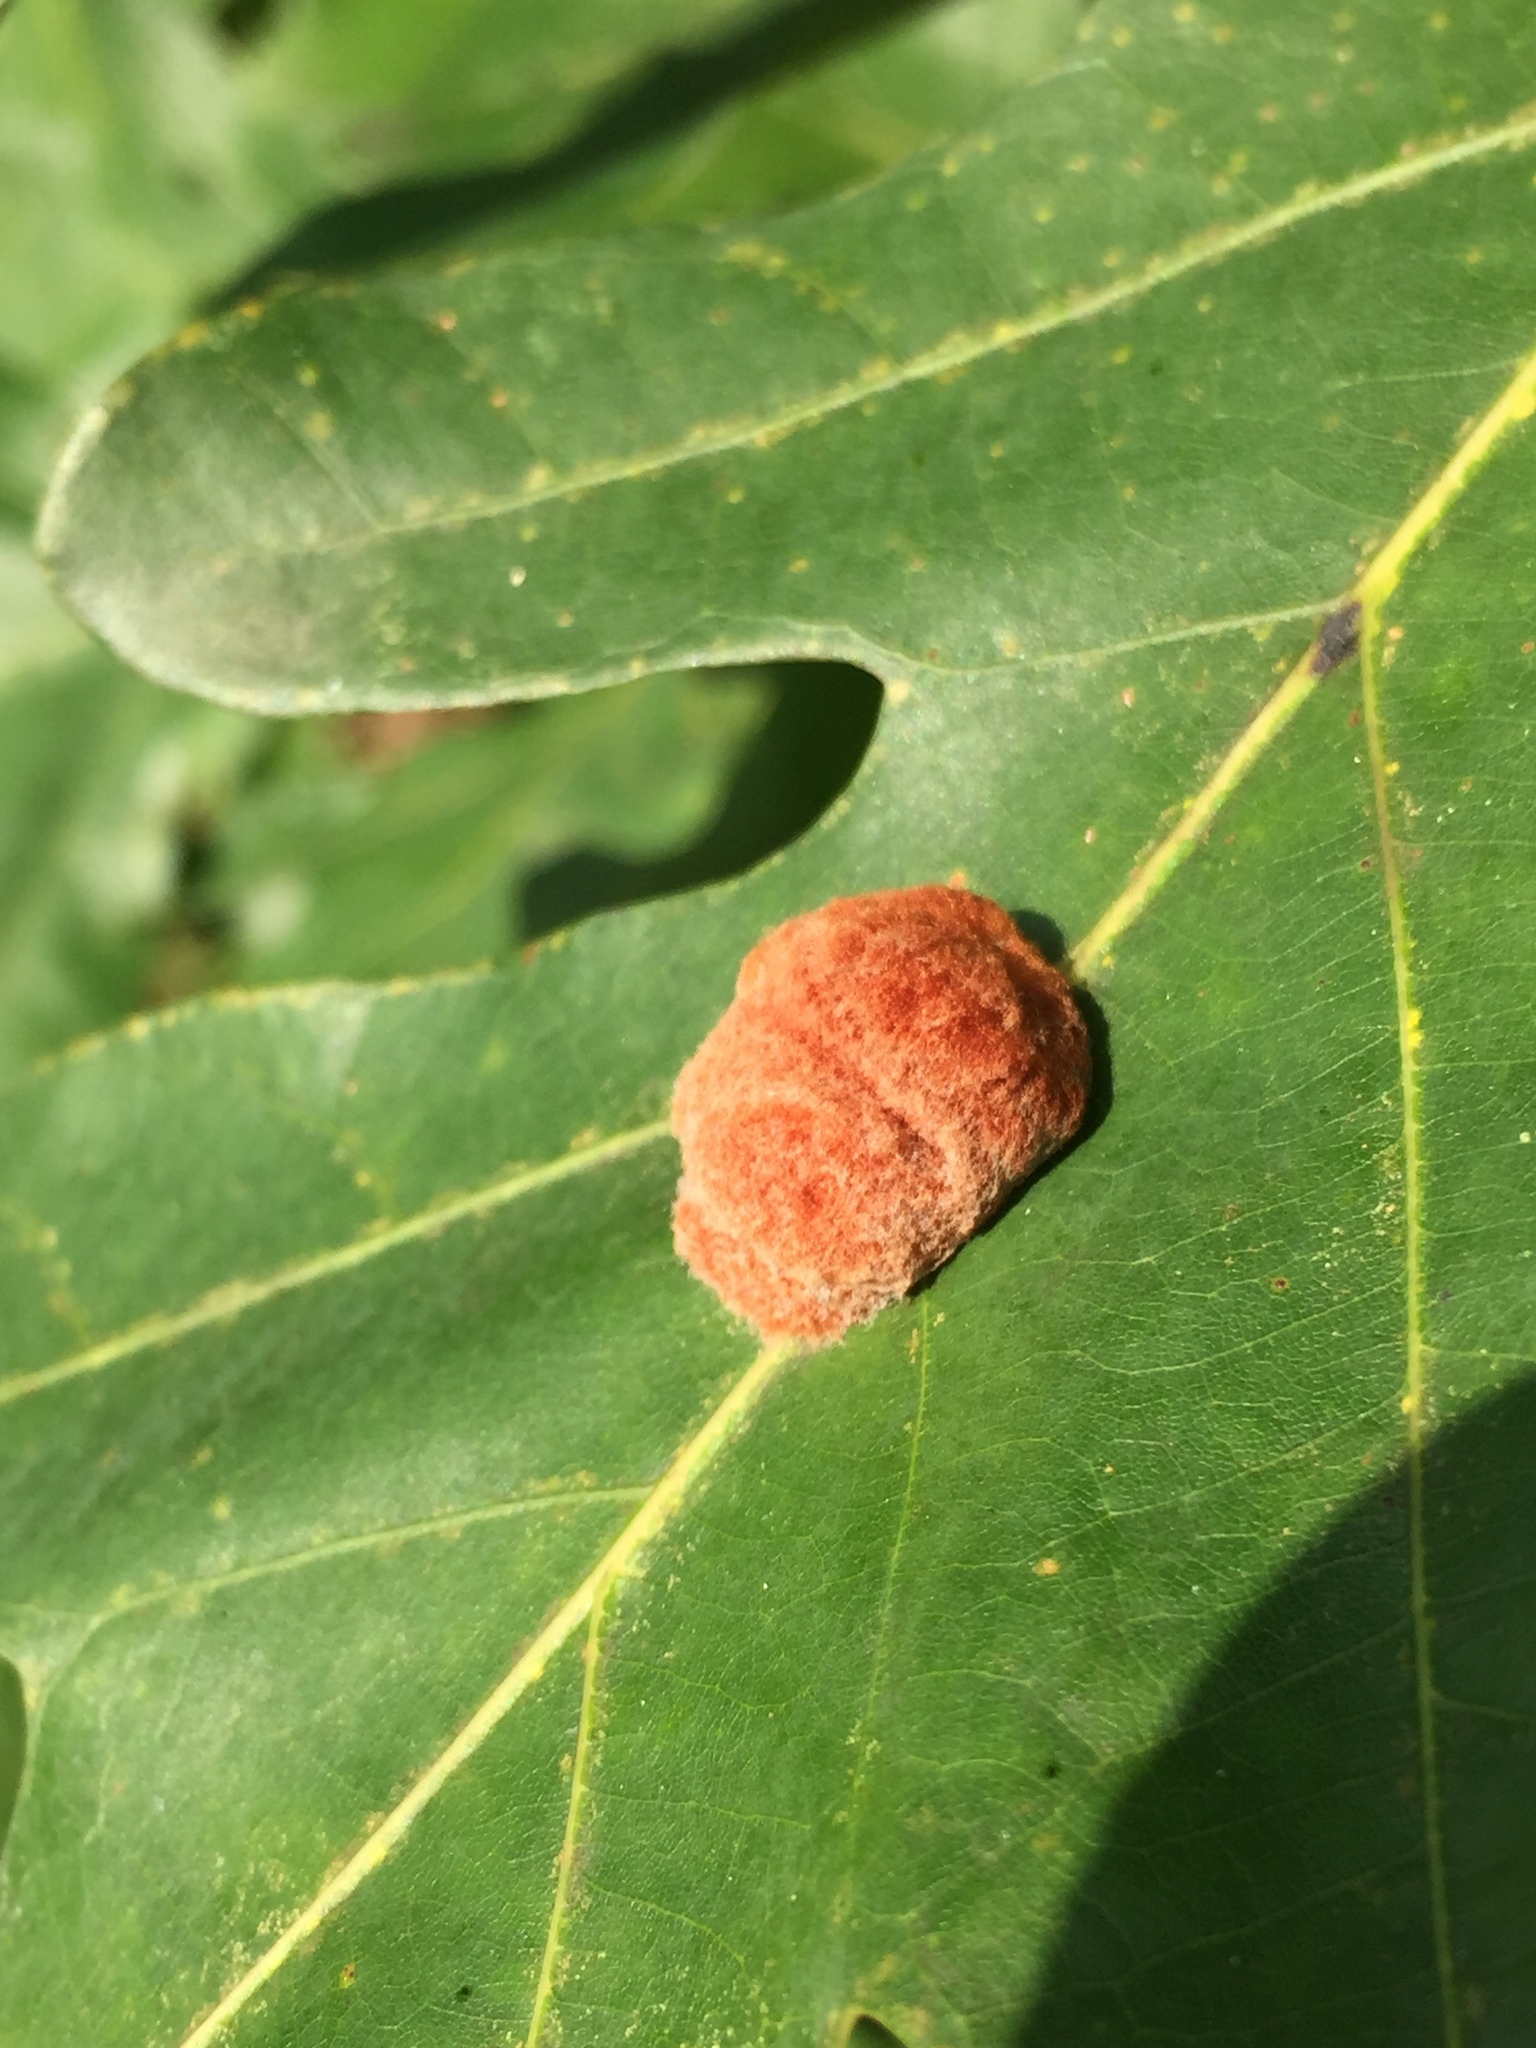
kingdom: Animalia
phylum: Arthropoda
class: Insecta
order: Hymenoptera
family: Cynipidae
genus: Andricus
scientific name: Andricus quercusflocci
